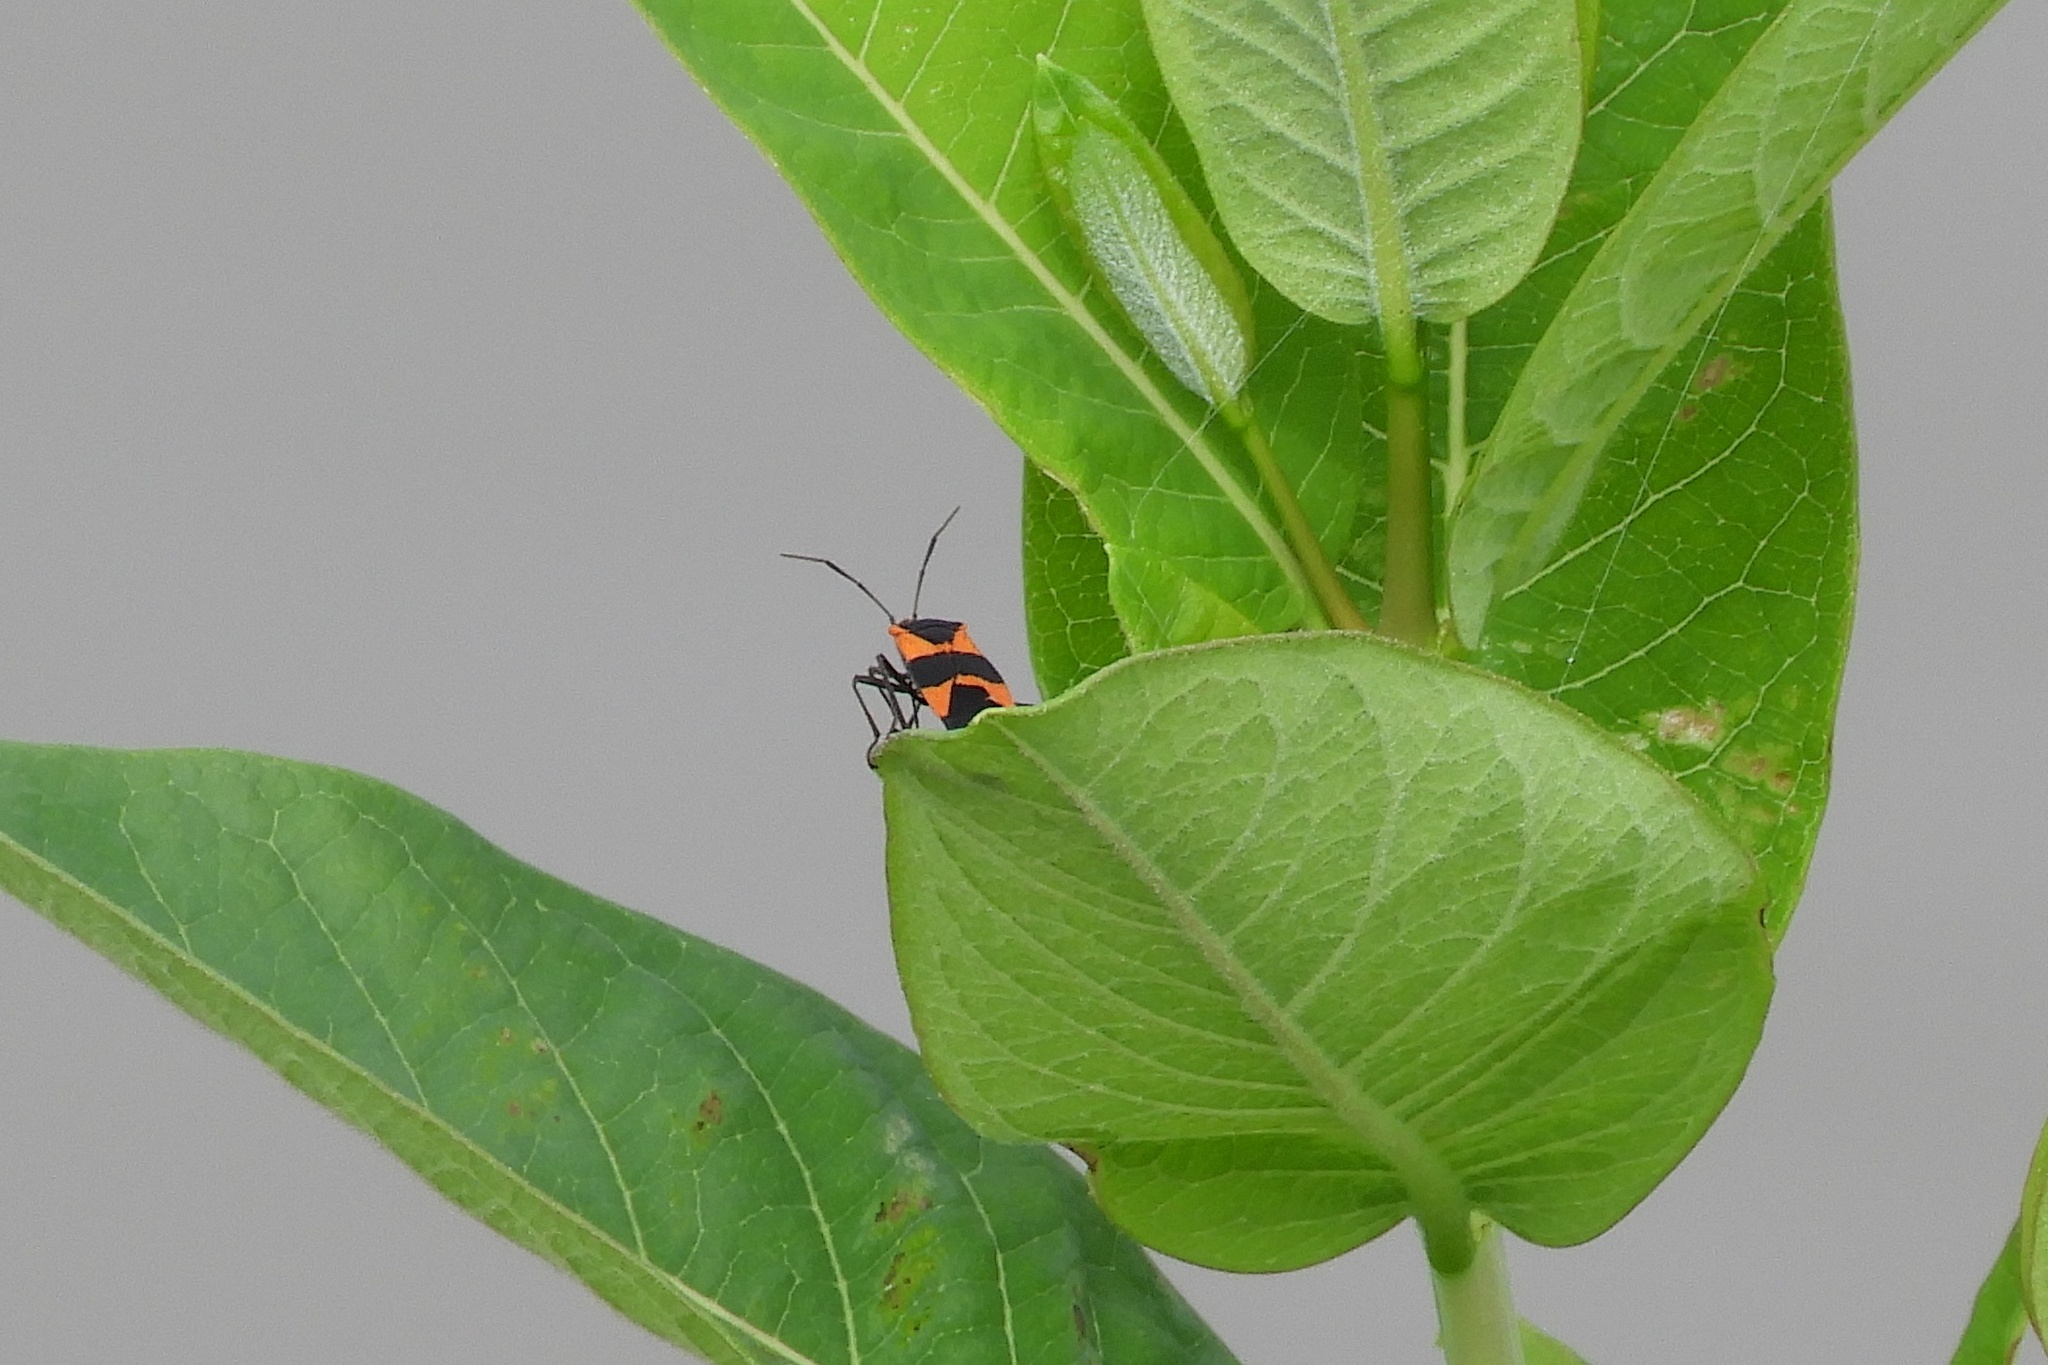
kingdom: Animalia
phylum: Arthropoda
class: Insecta
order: Hemiptera
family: Lygaeidae
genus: Oncopeltus
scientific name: Oncopeltus fasciatus
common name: Large milkweed bug
